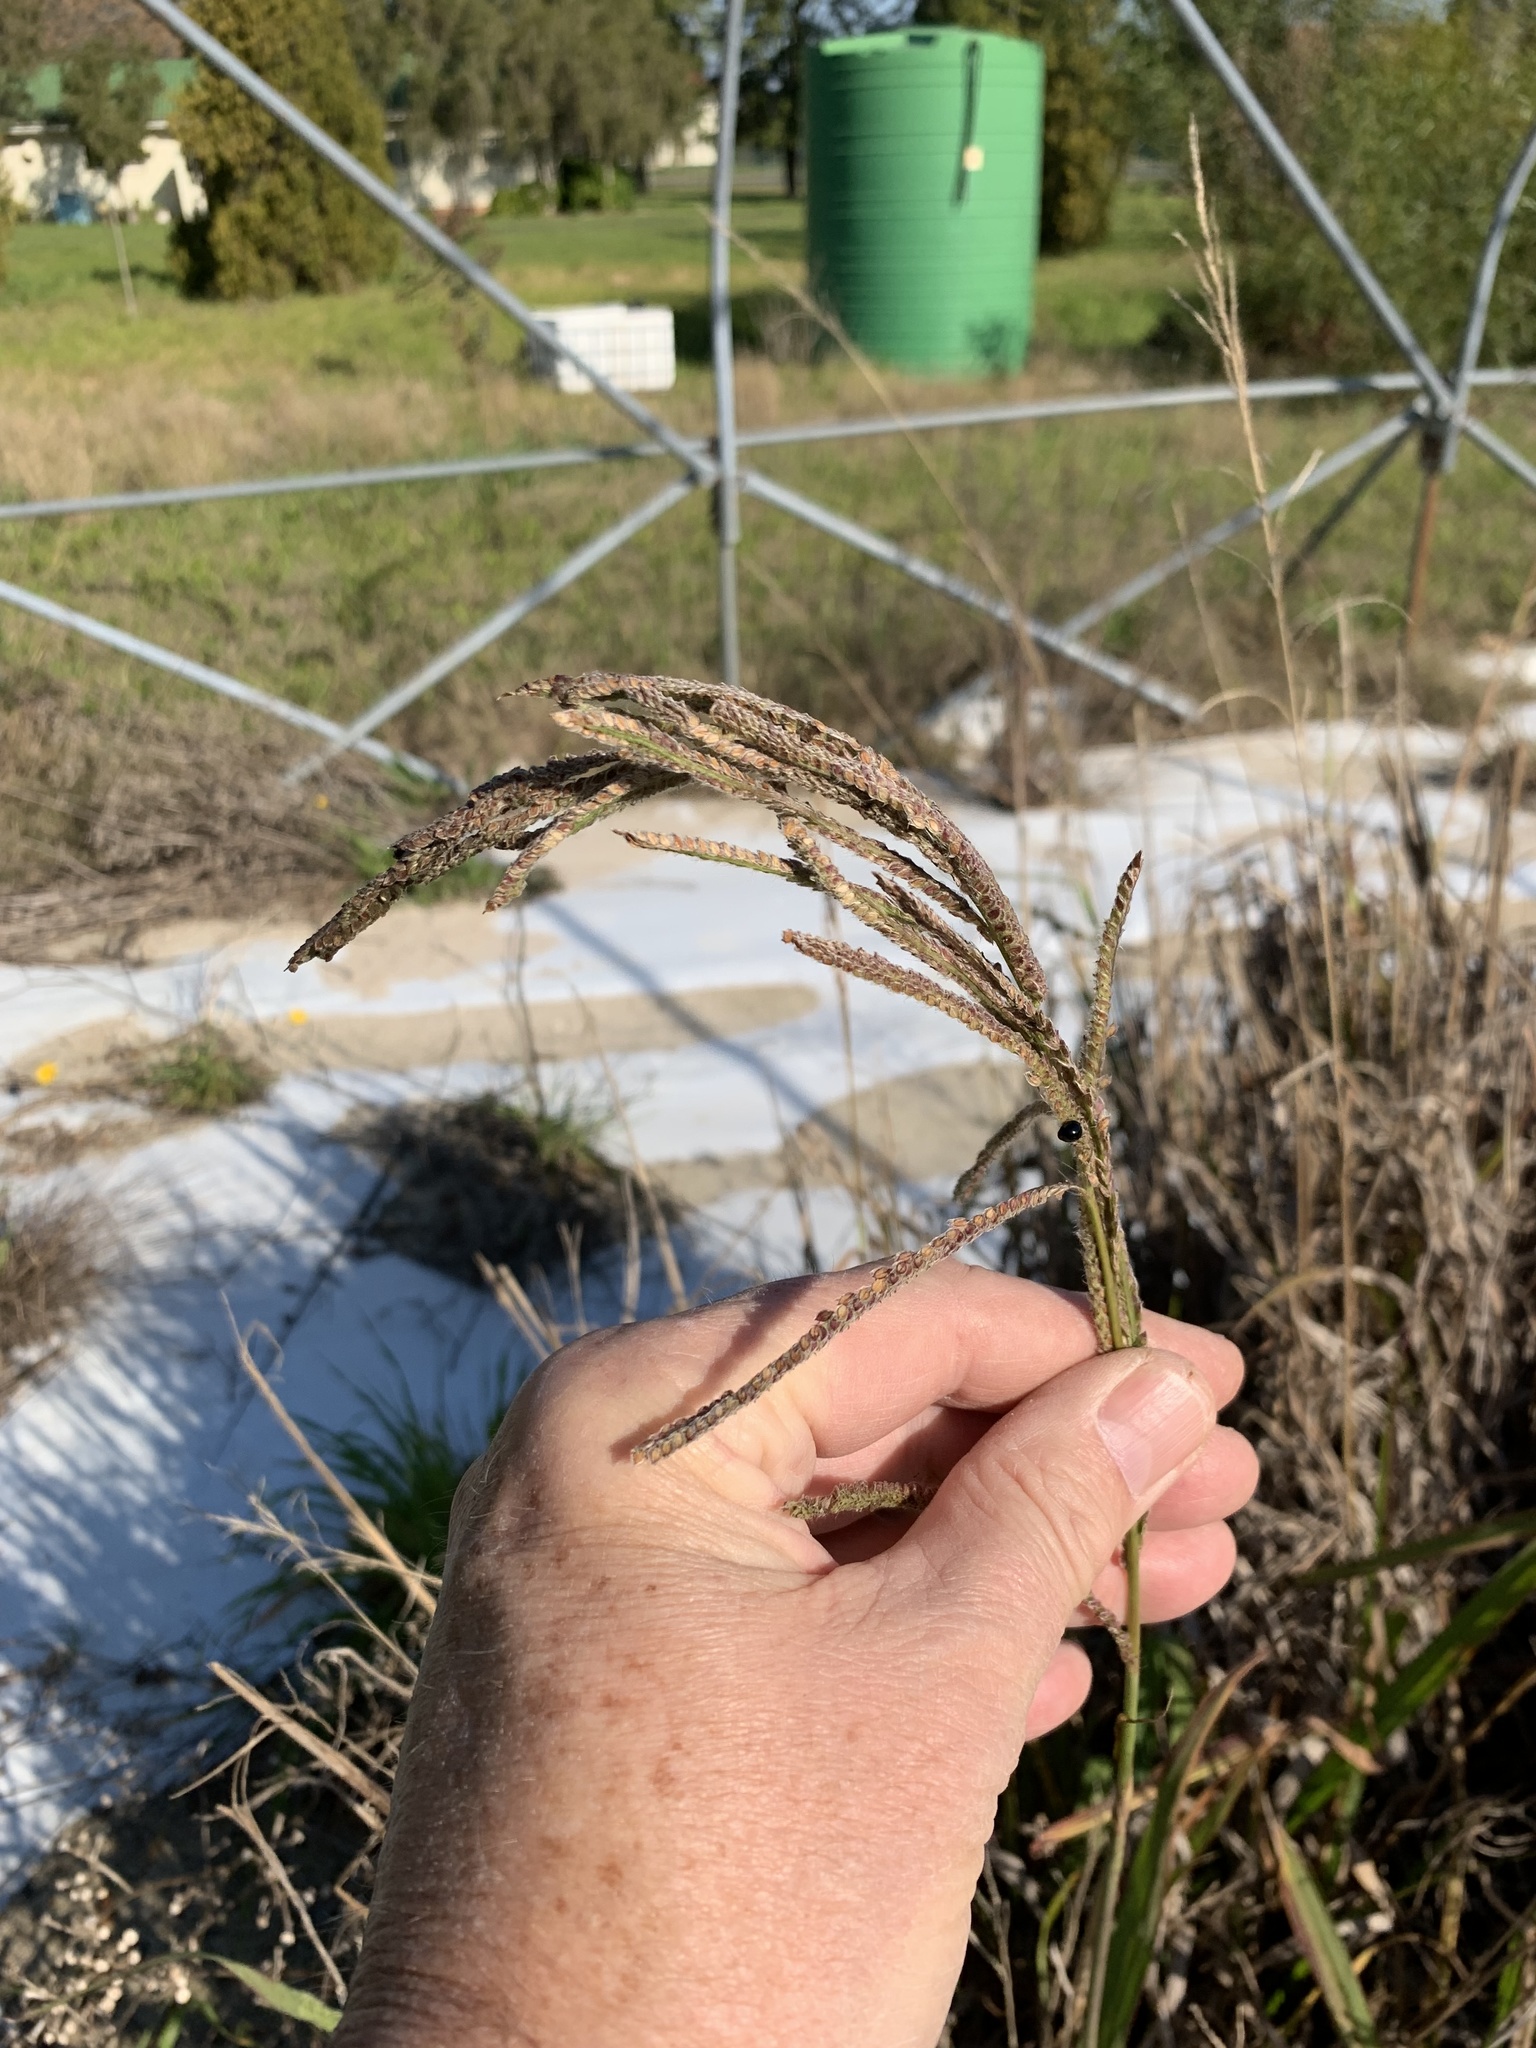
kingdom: Plantae
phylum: Tracheophyta
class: Liliopsida
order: Poales
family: Poaceae
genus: Paspalum
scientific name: Paspalum urvillei
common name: Vasey's grass
